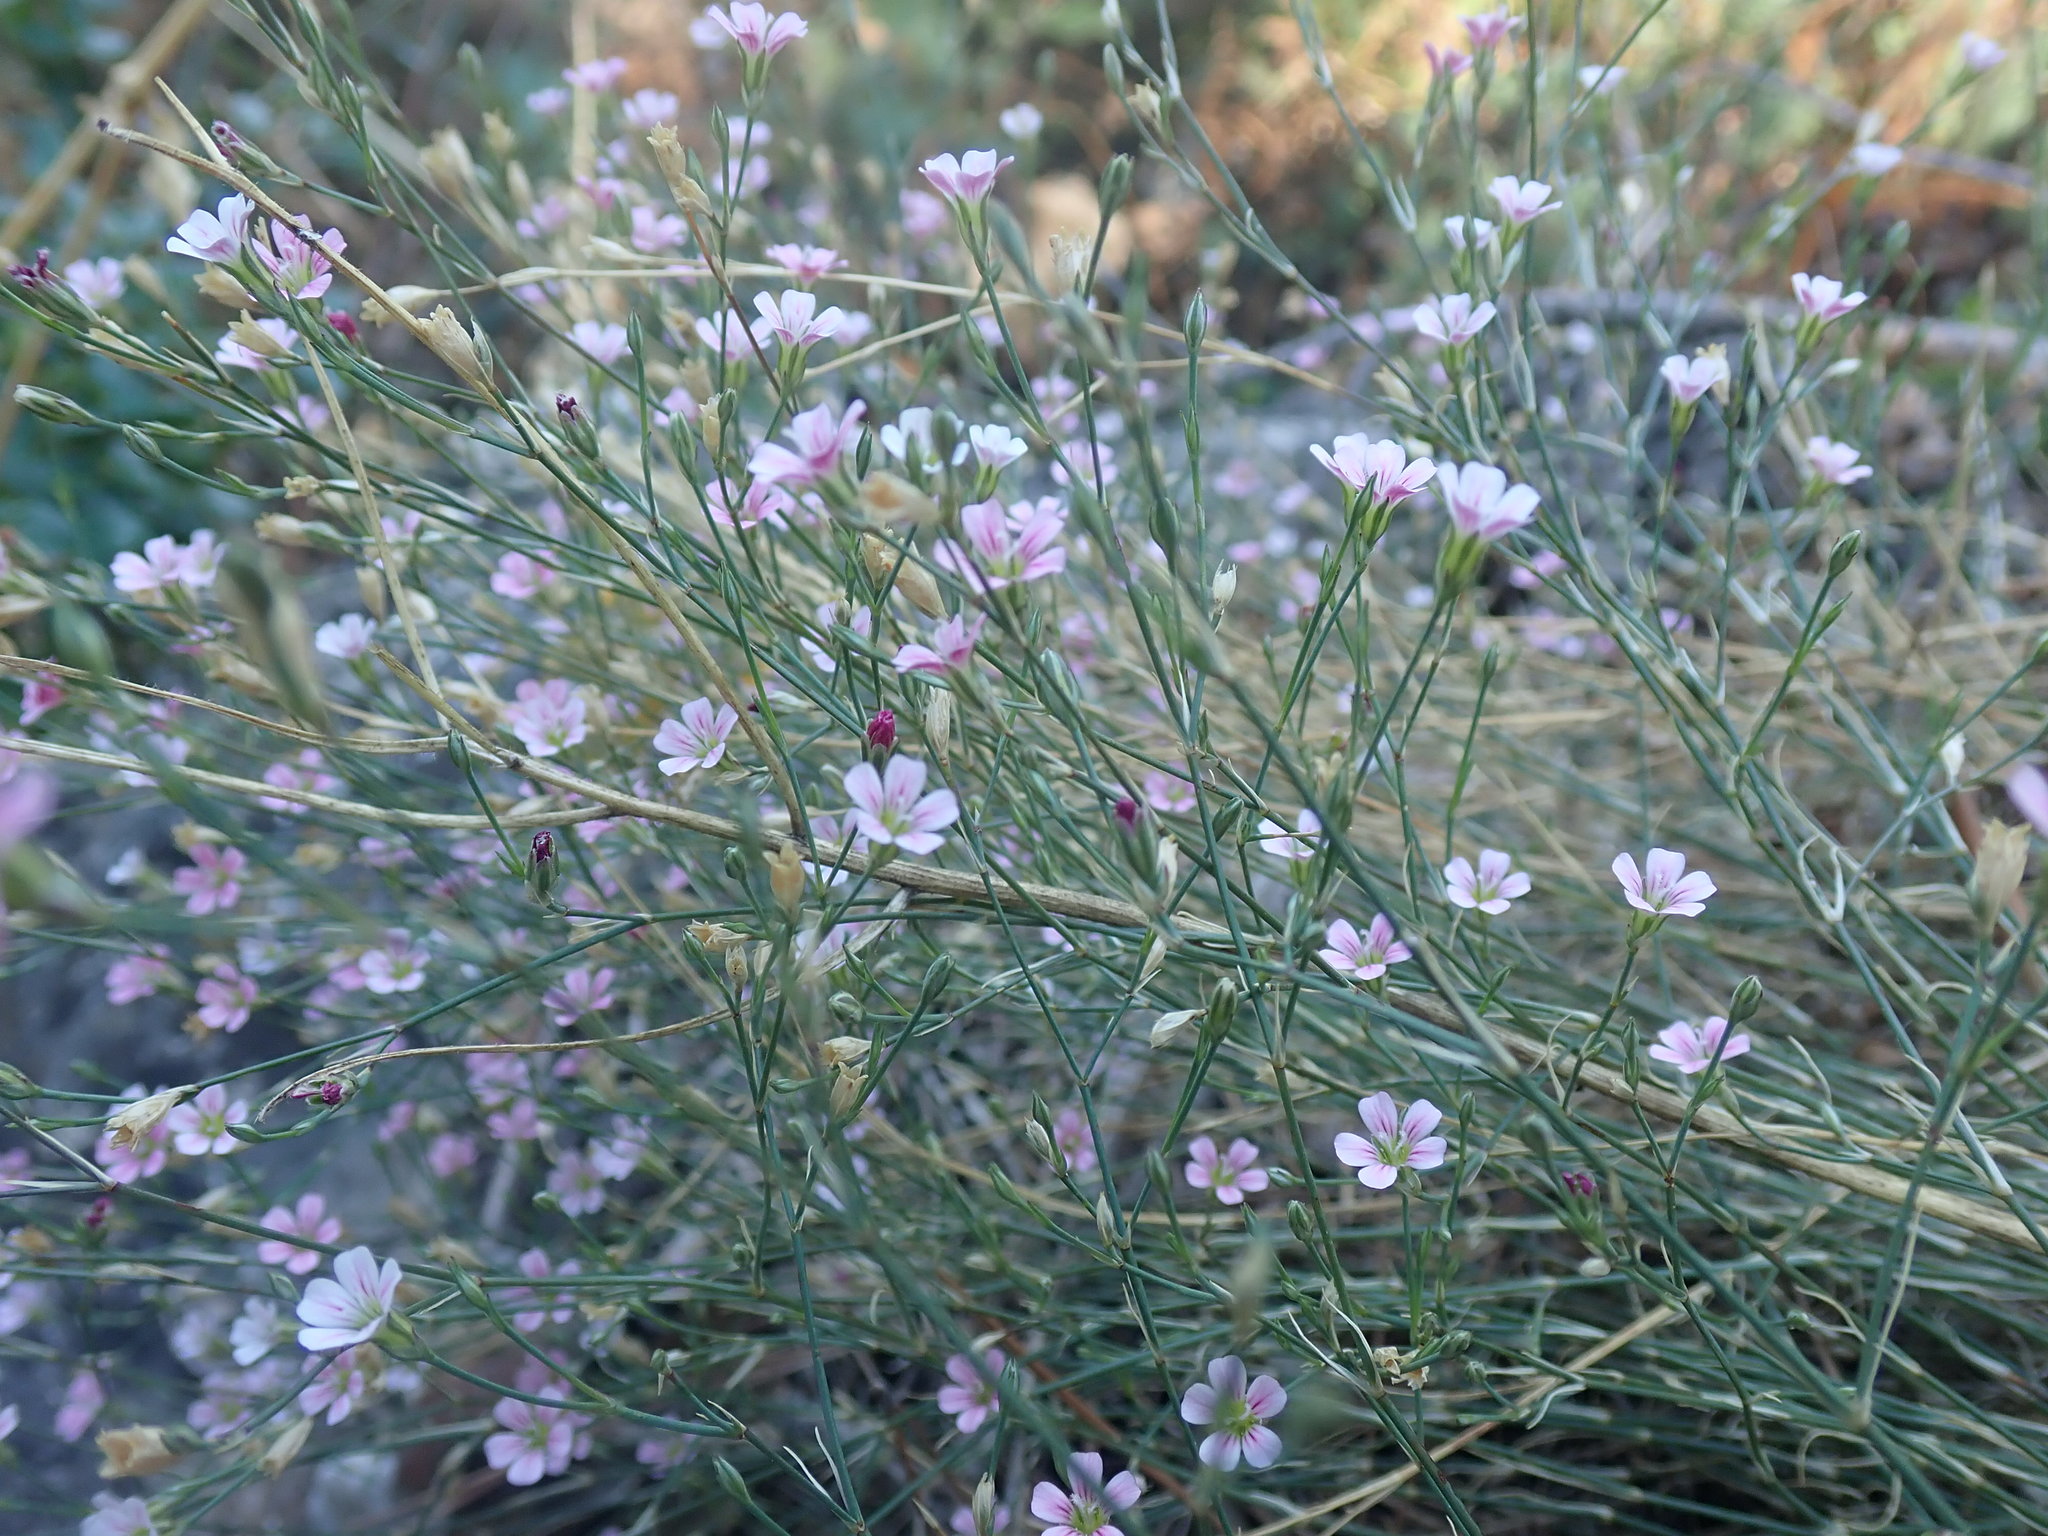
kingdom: Plantae
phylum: Tracheophyta
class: Magnoliopsida
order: Caryophyllales
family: Caryophyllaceae
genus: Petrorhagia
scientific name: Petrorhagia saxifraga
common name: Tunicflower
